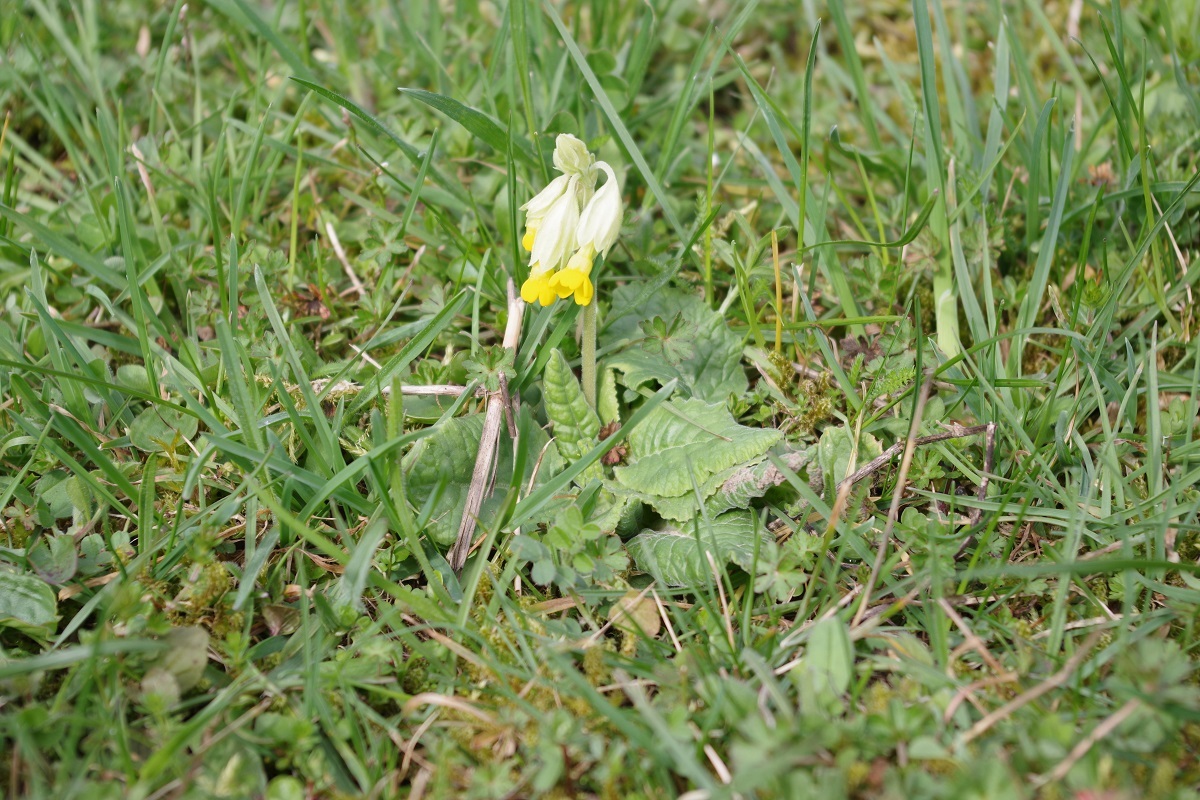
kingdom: Plantae
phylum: Tracheophyta
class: Magnoliopsida
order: Ericales
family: Primulaceae
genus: Primula
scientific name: Primula veris
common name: Cowslip
